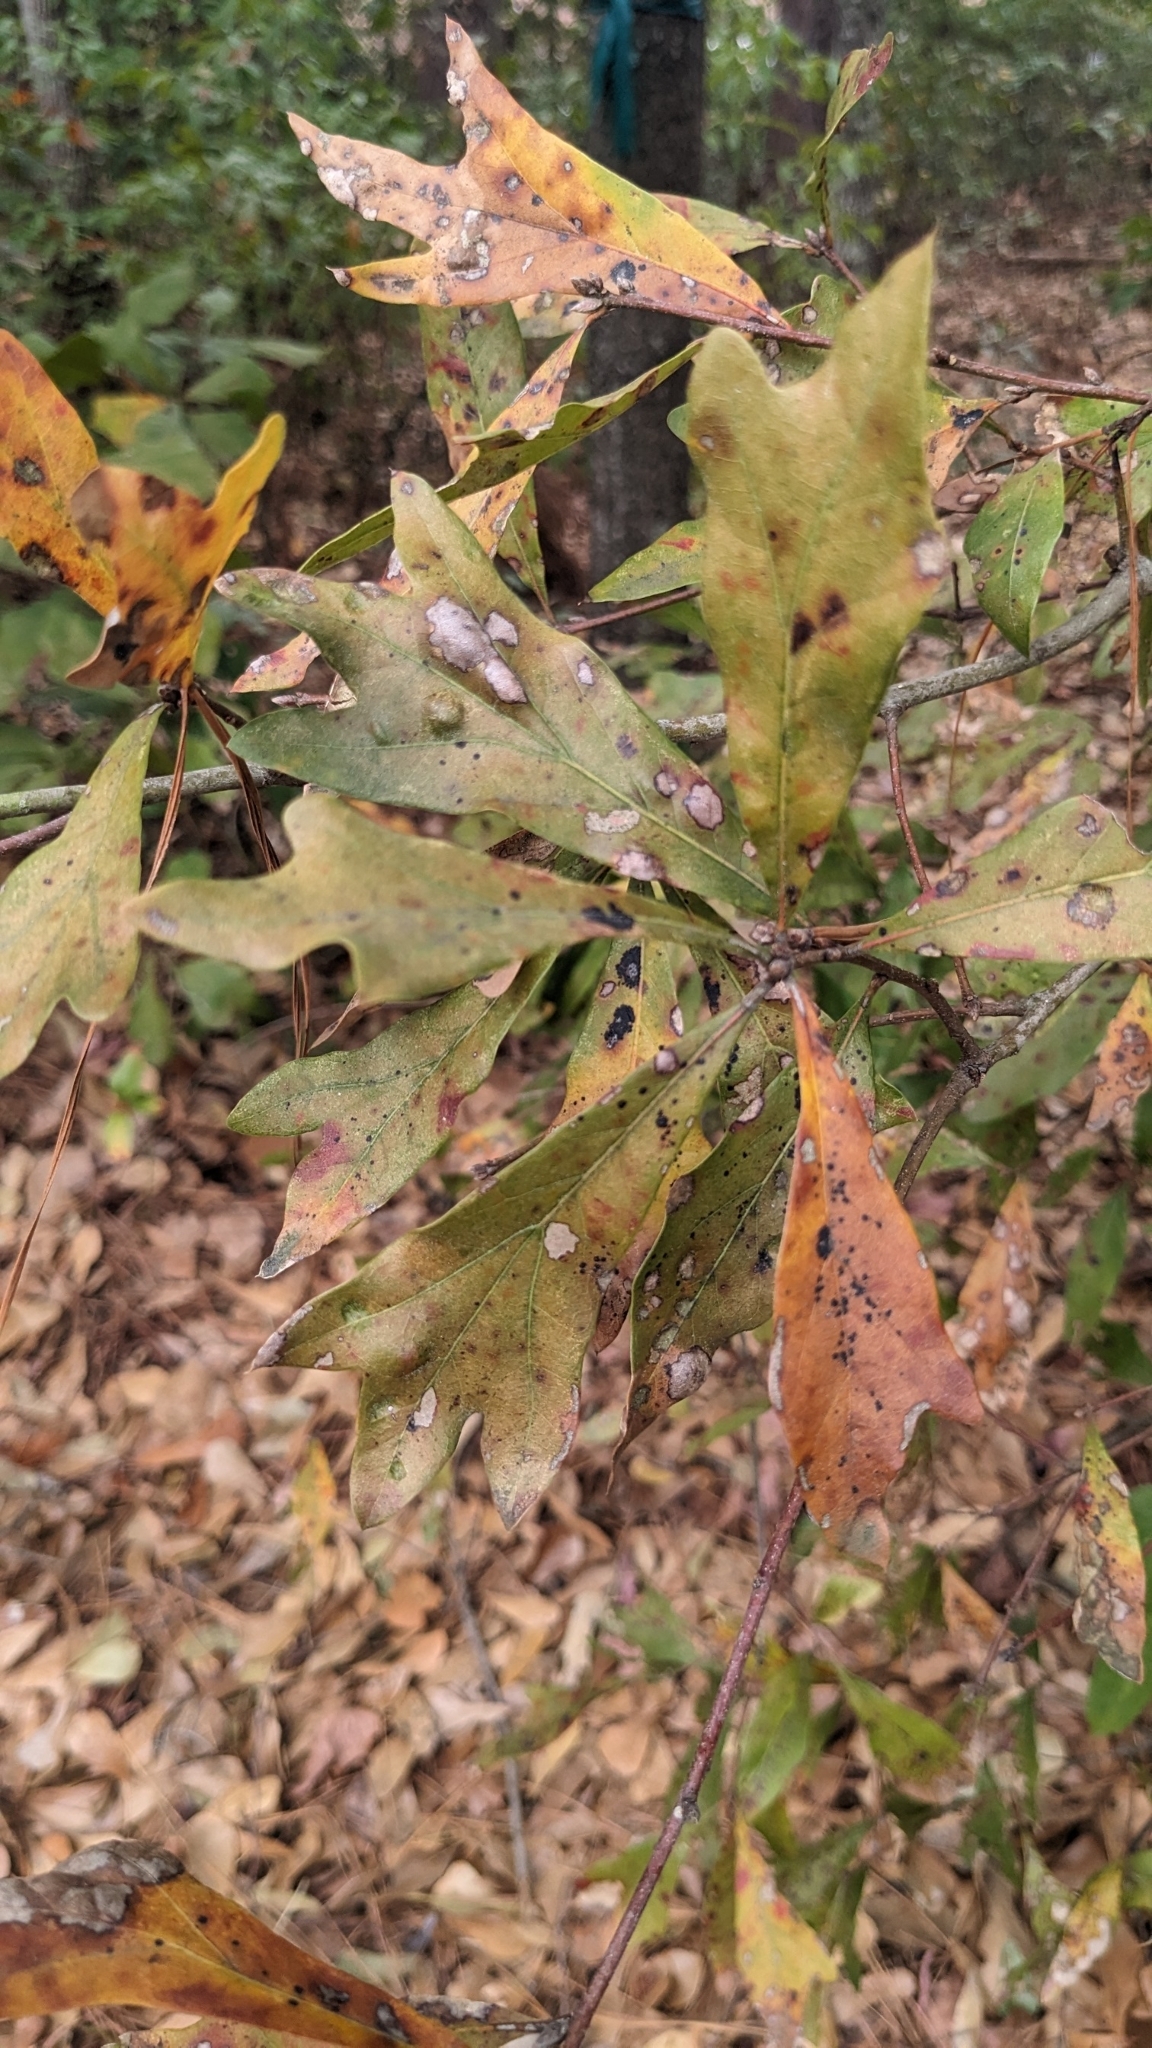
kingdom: Plantae
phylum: Tracheophyta
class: Magnoliopsida
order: Fagales
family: Fagaceae
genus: Quercus
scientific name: Quercus nigra
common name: Water oak
